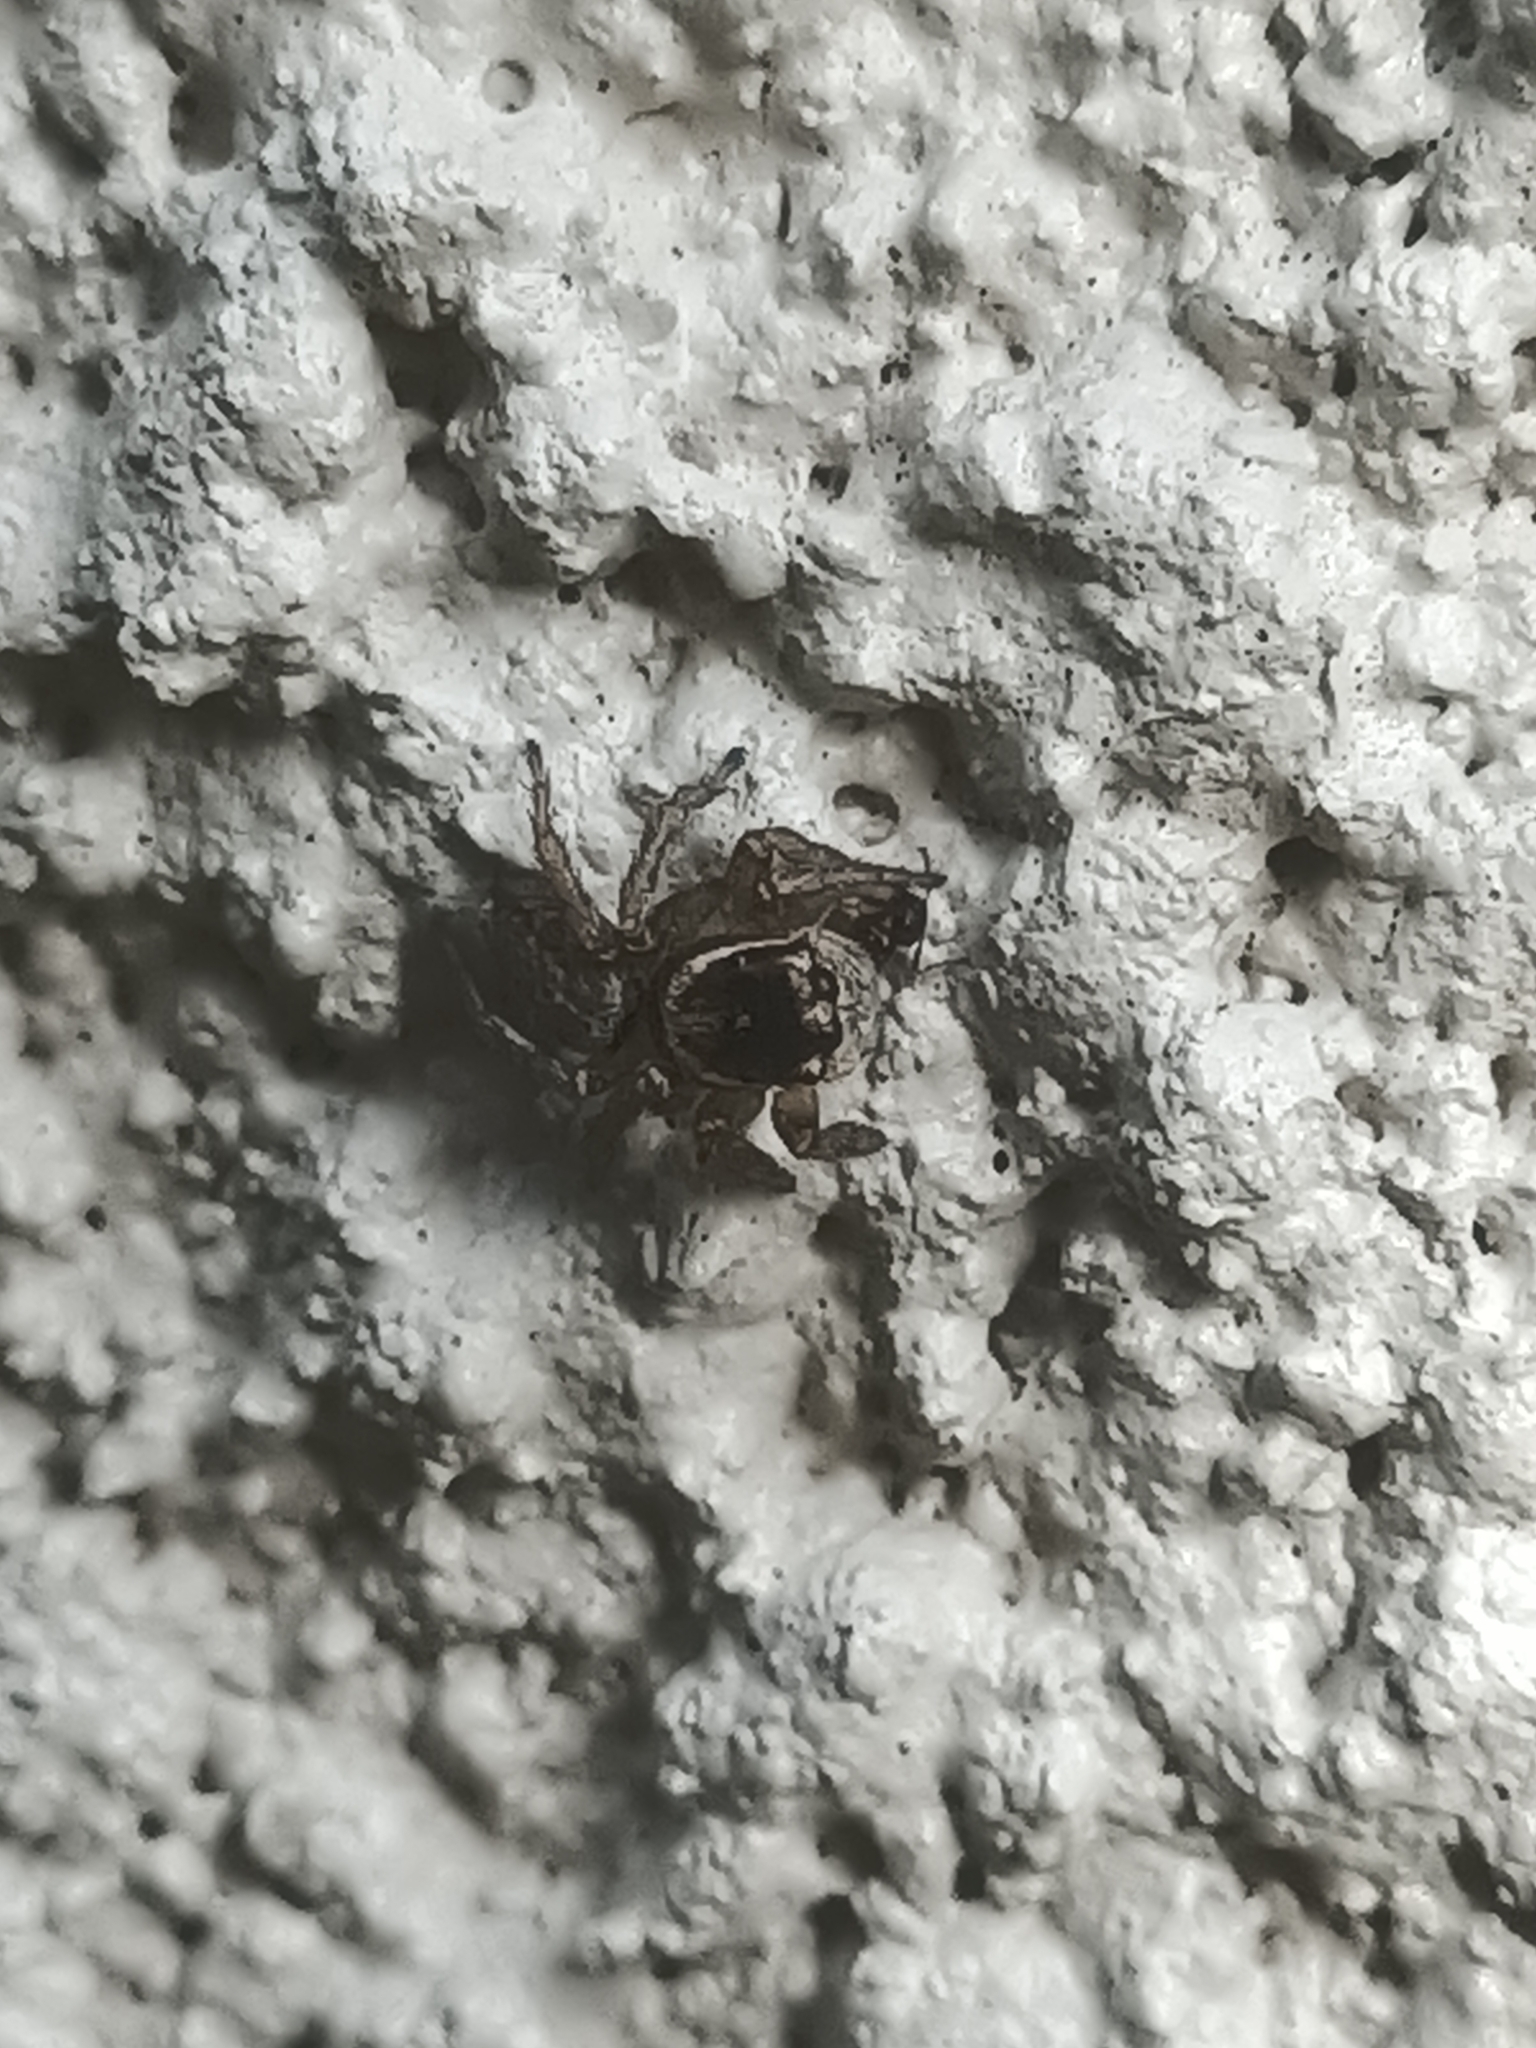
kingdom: Animalia
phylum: Arthropoda
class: Arachnida
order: Araneae
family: Salticidae
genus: Maratus
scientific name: Maratus griseus
